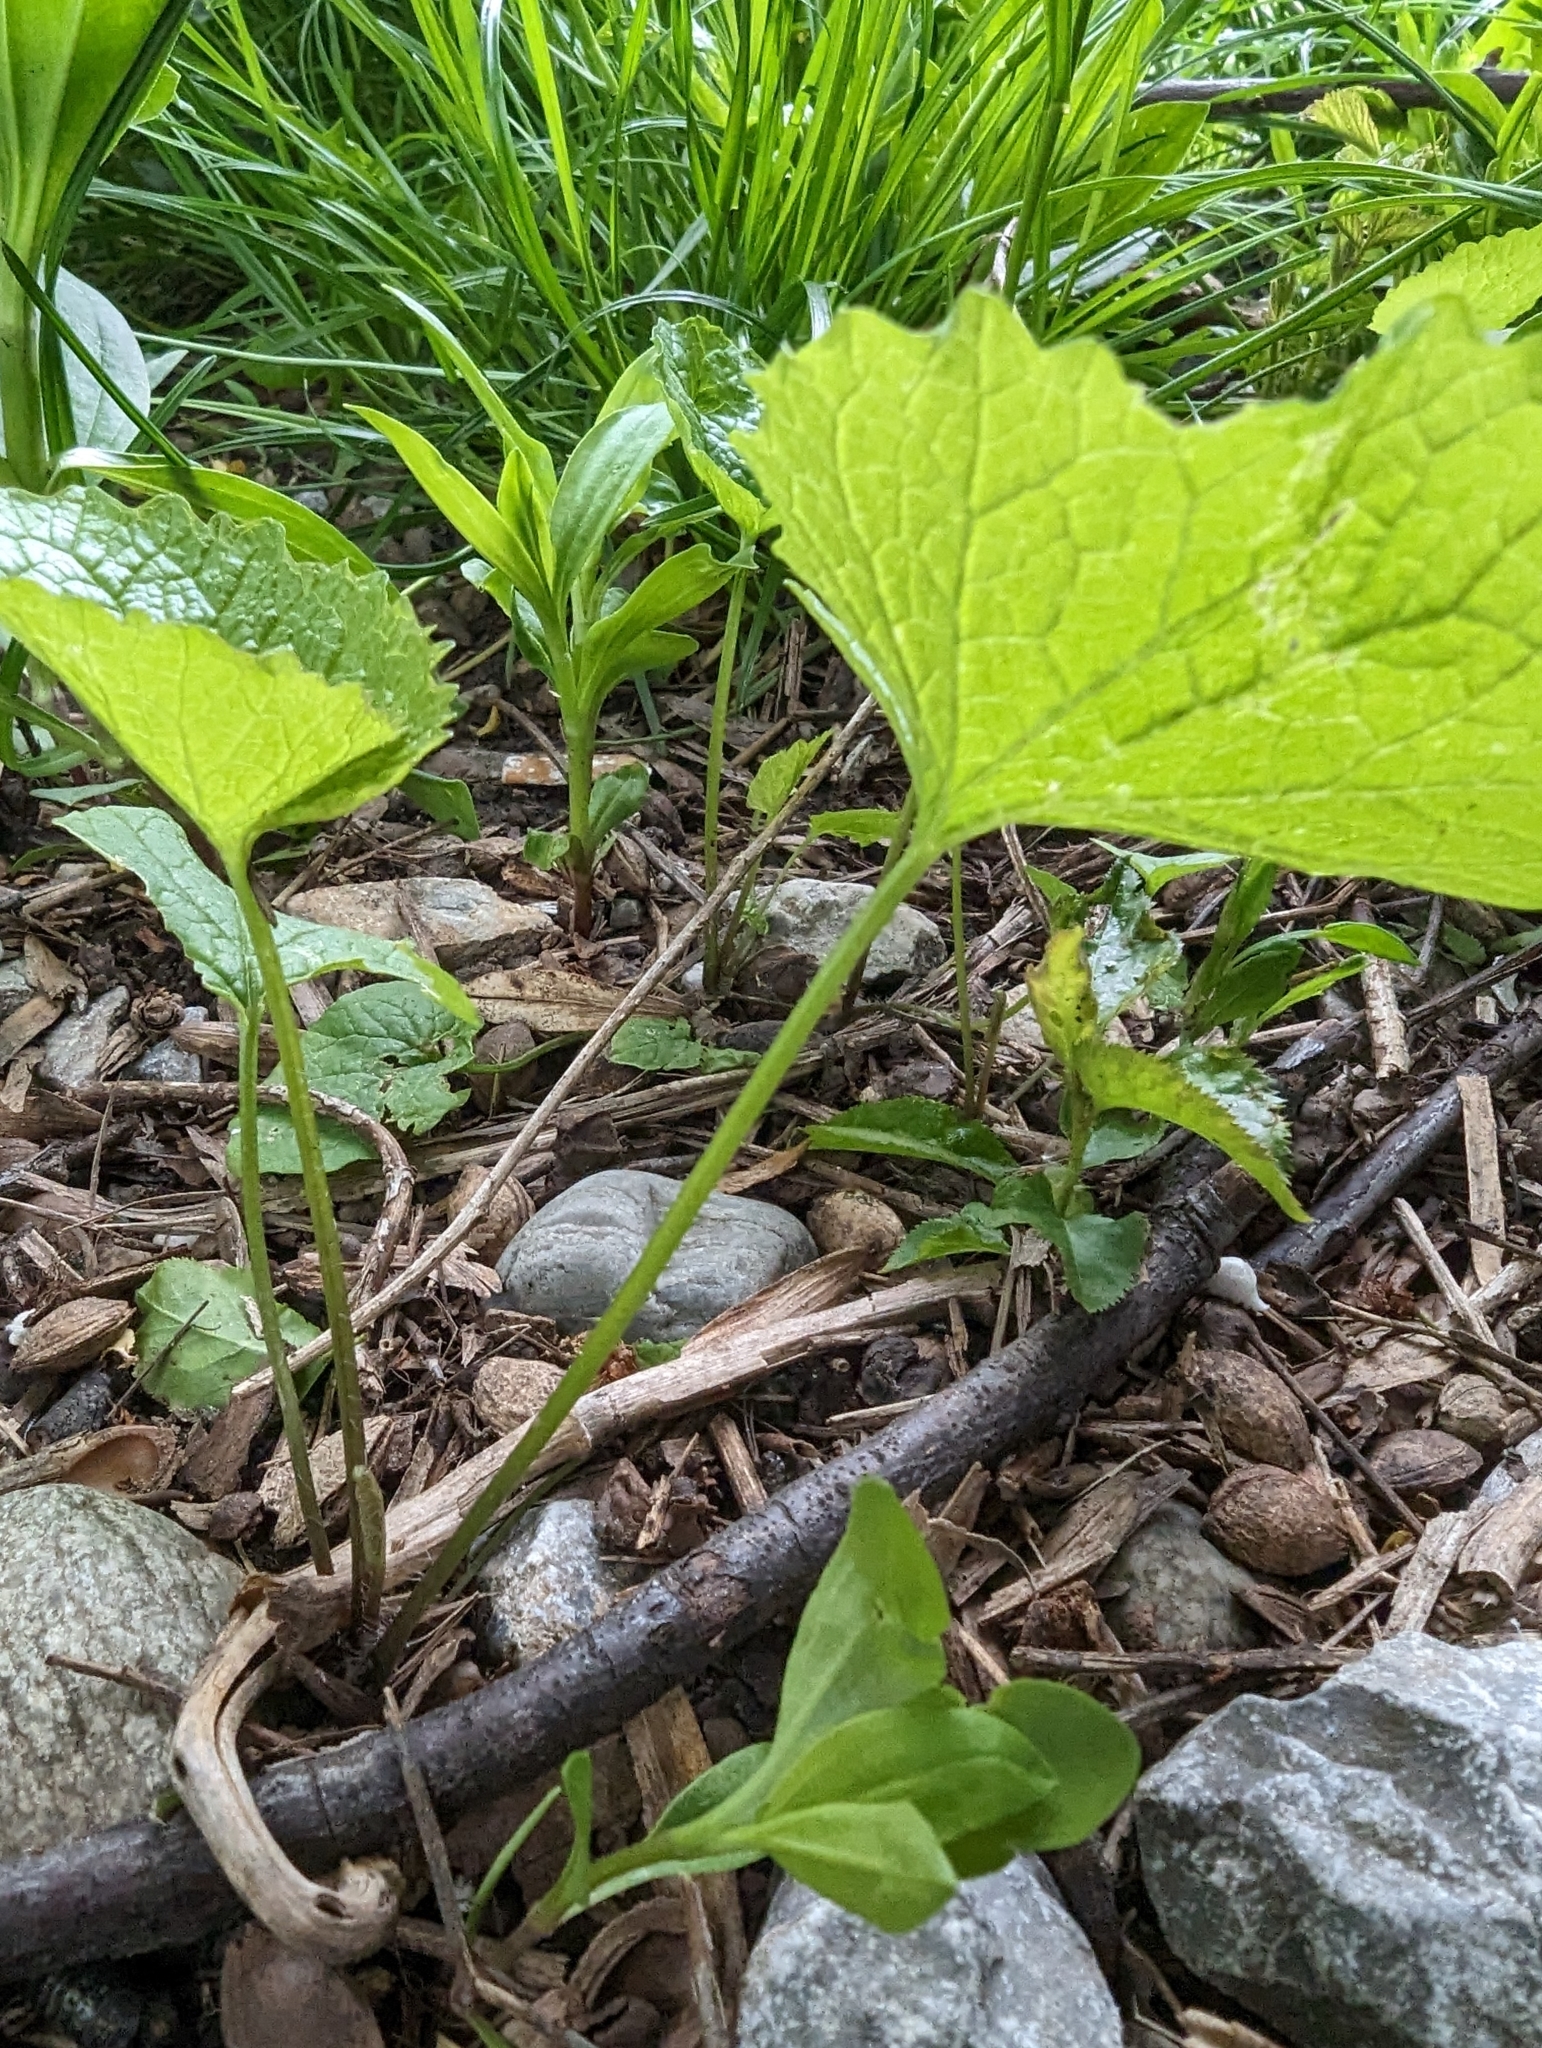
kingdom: Plantae
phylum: Tracheophyta
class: Magnoliopsida
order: Brassicales
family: Brassicaceae
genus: Alliaria
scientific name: Alliaria petiolata
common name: Garlic mustard
